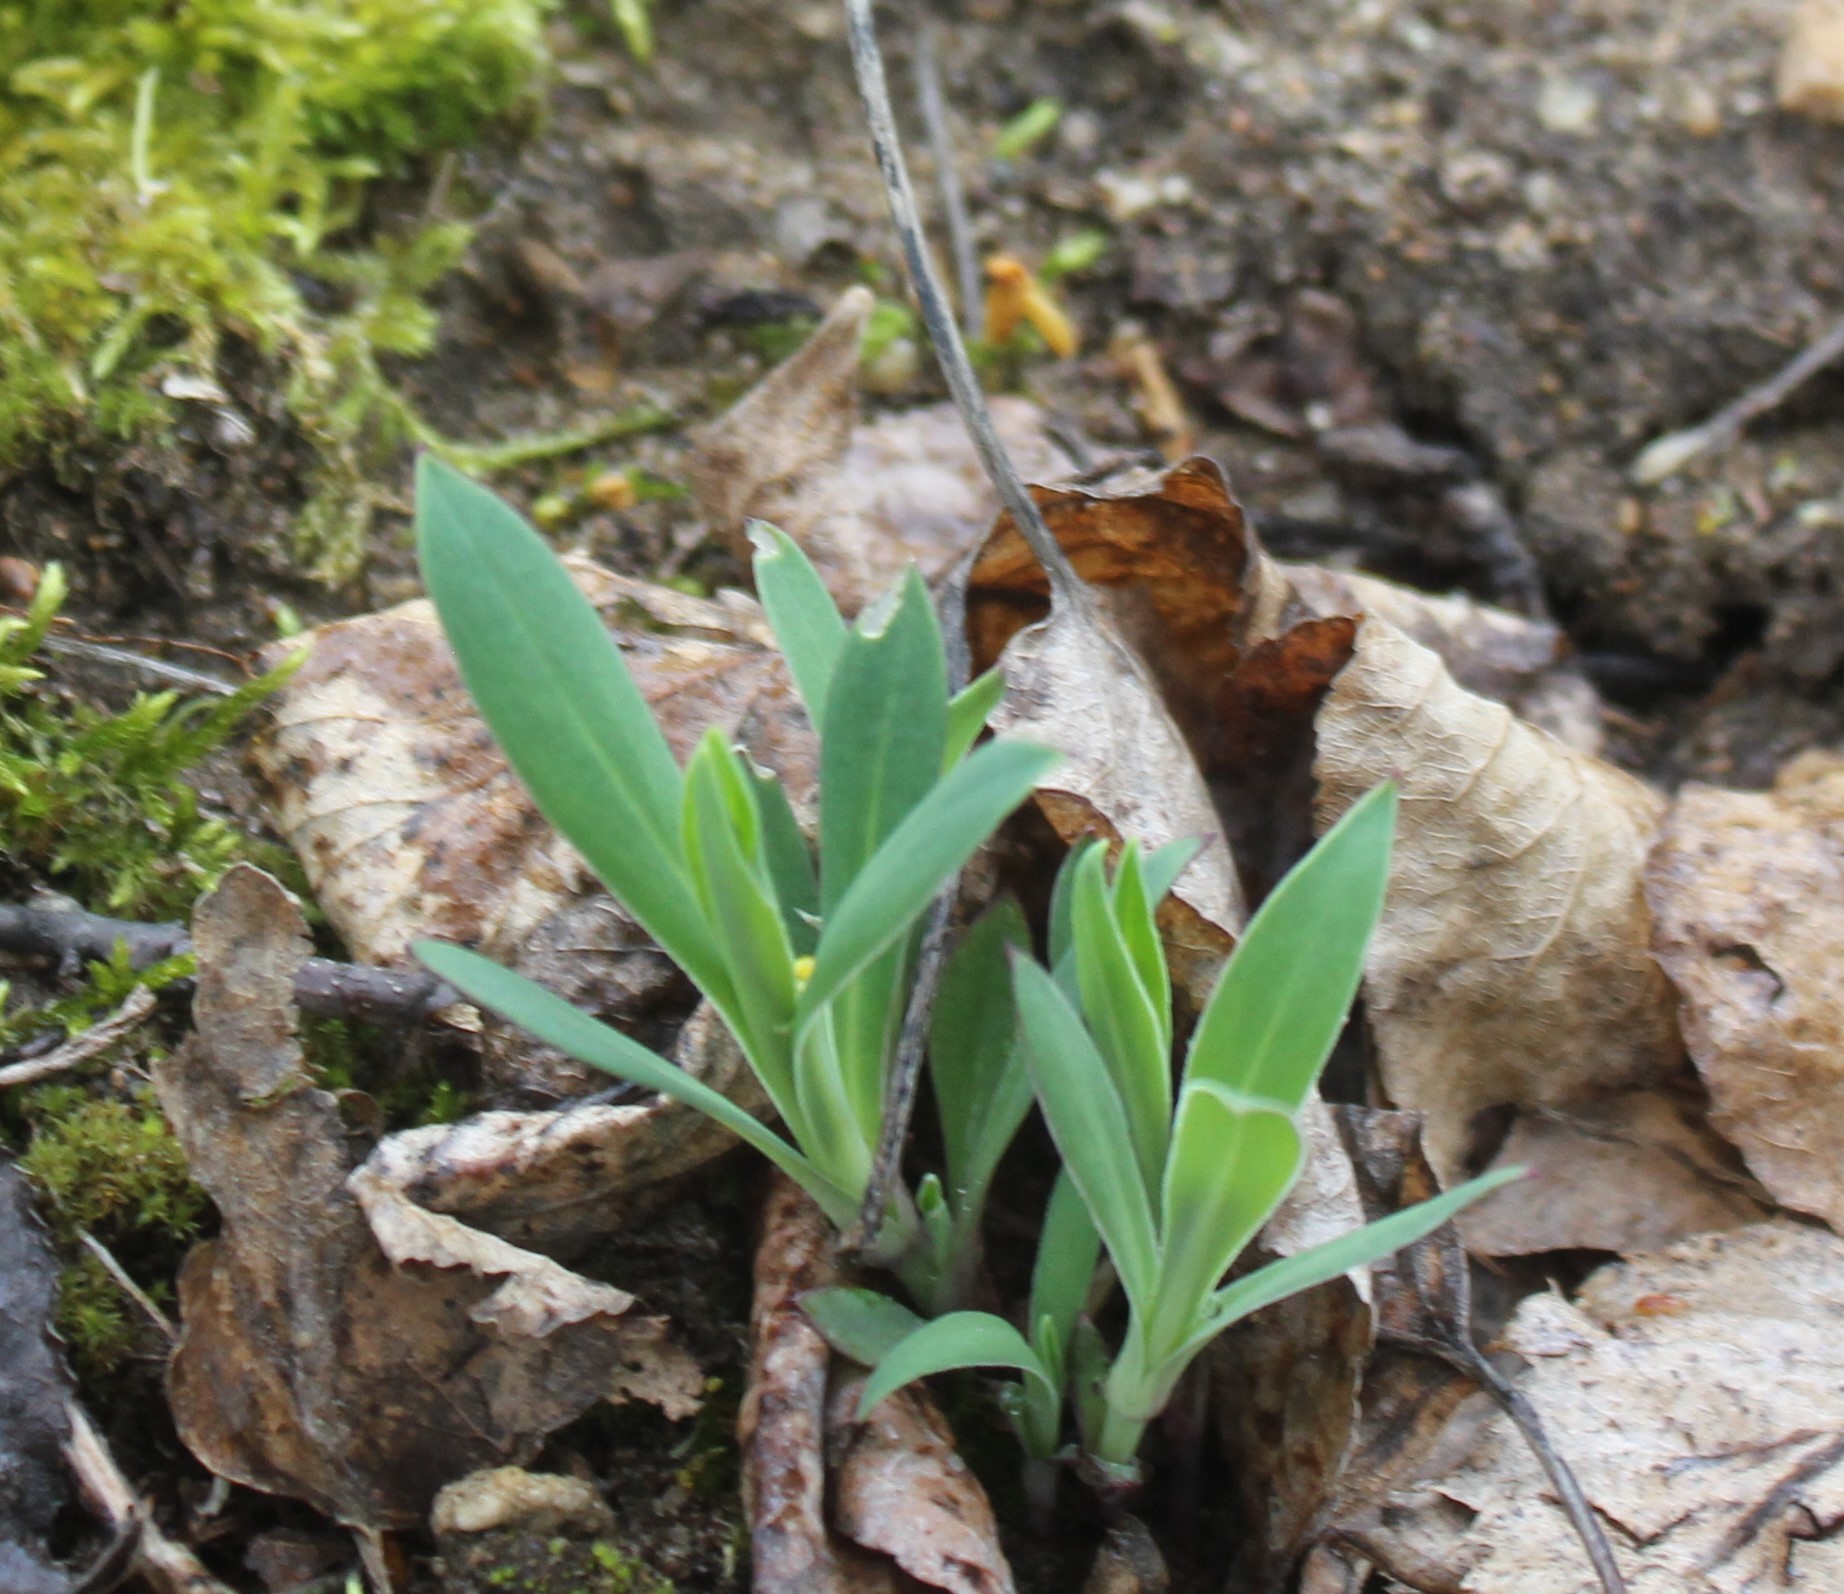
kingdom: Plantae
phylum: Tracheophyta
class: Magnoliopsida
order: Caryophyllales
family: Caryophyllaceae
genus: Silene
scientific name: Silene vulgaris
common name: Bladder campion
